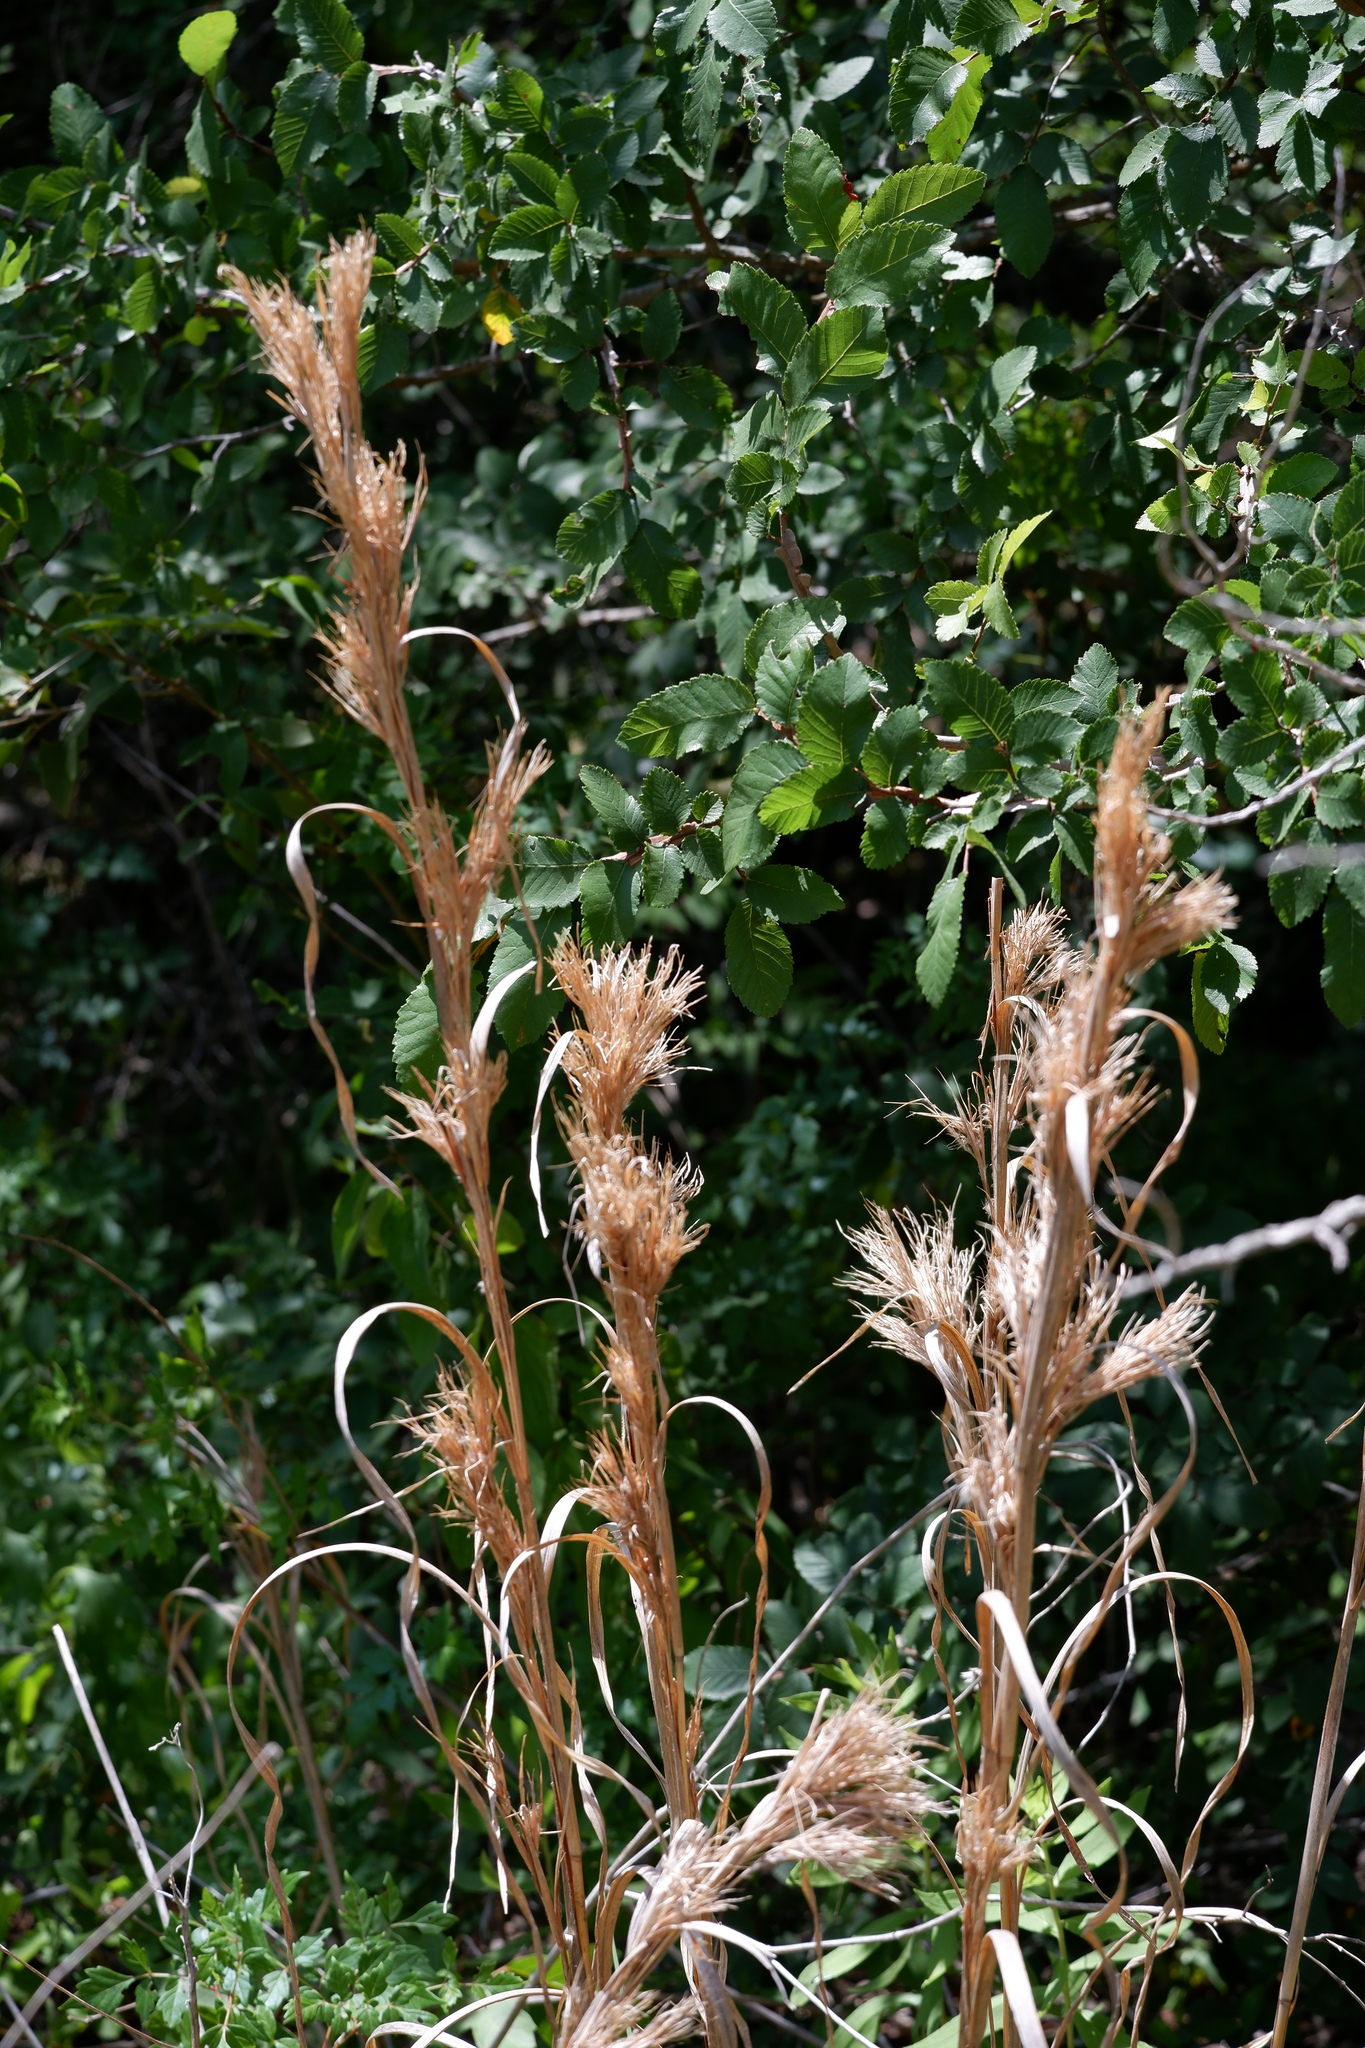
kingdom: Plantae
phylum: Tracheophyta
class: Liliopsida
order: Poales
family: Poaceae
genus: Andropogon
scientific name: Andropogon tenuispatheus
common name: Bushy bluestem
